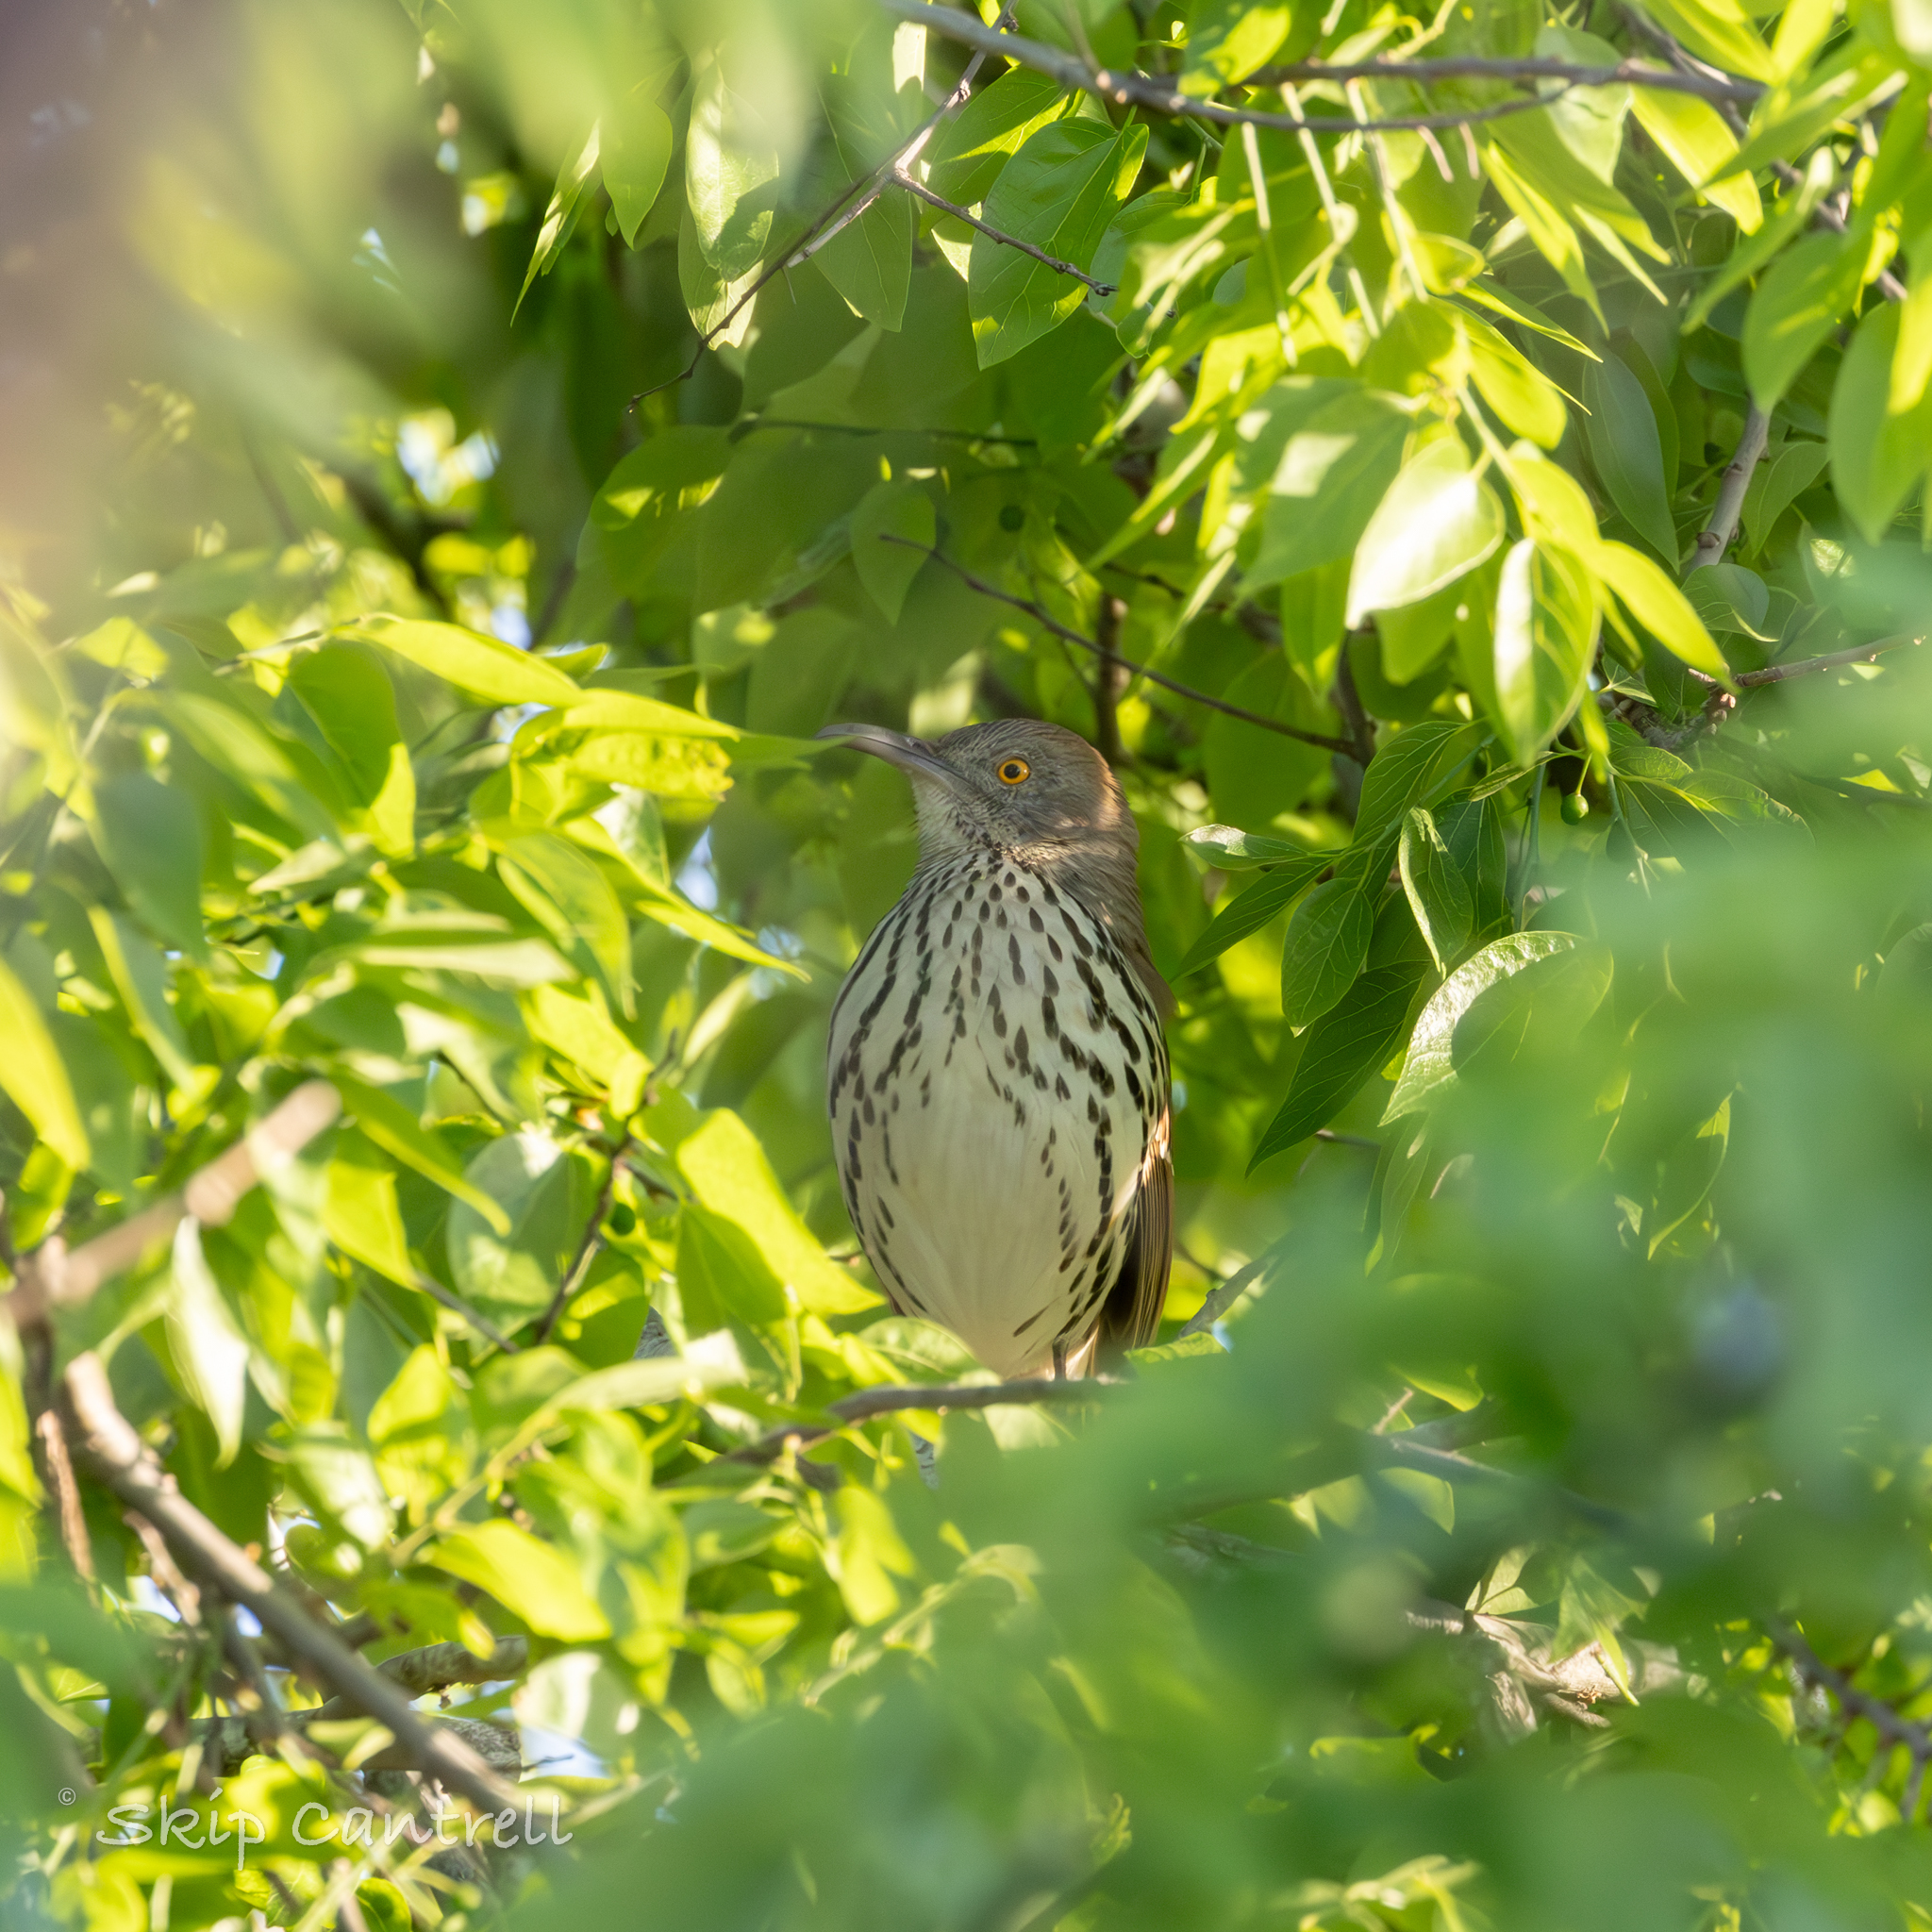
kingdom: Animalia
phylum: Chordata
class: Aves
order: Passeriformes
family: Mimidae
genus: Toxostoma
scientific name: Toxostoma longirostre
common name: Long-billed thrasher
